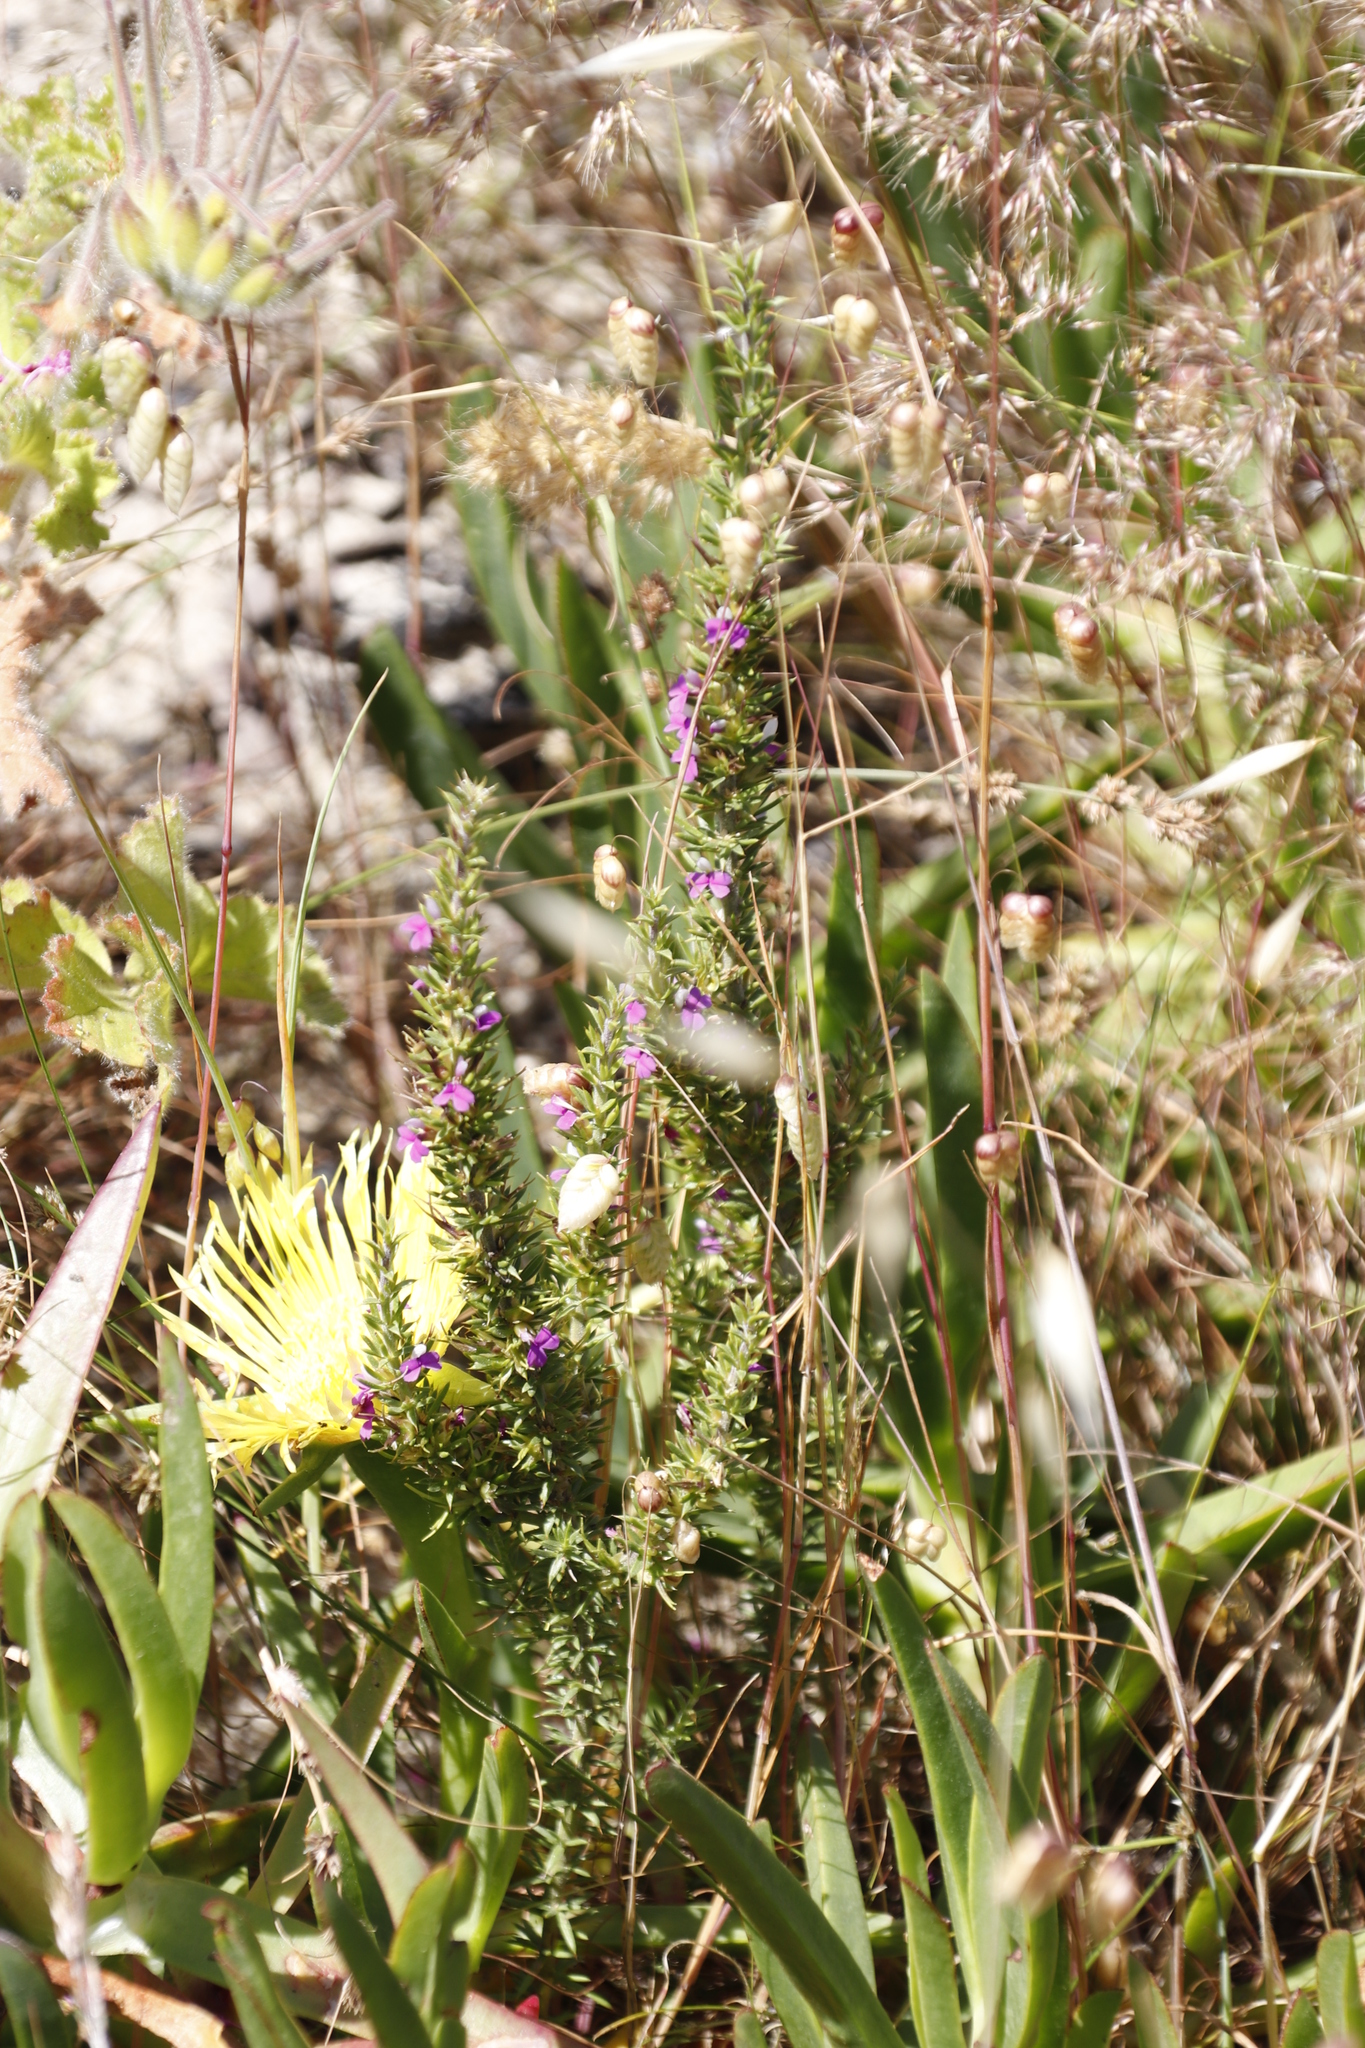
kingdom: Plantae
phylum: Tracheophyta
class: Magnoliopsida
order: Fabales
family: Polygalaceae
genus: Muraltia
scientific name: Muraltia heisteria
